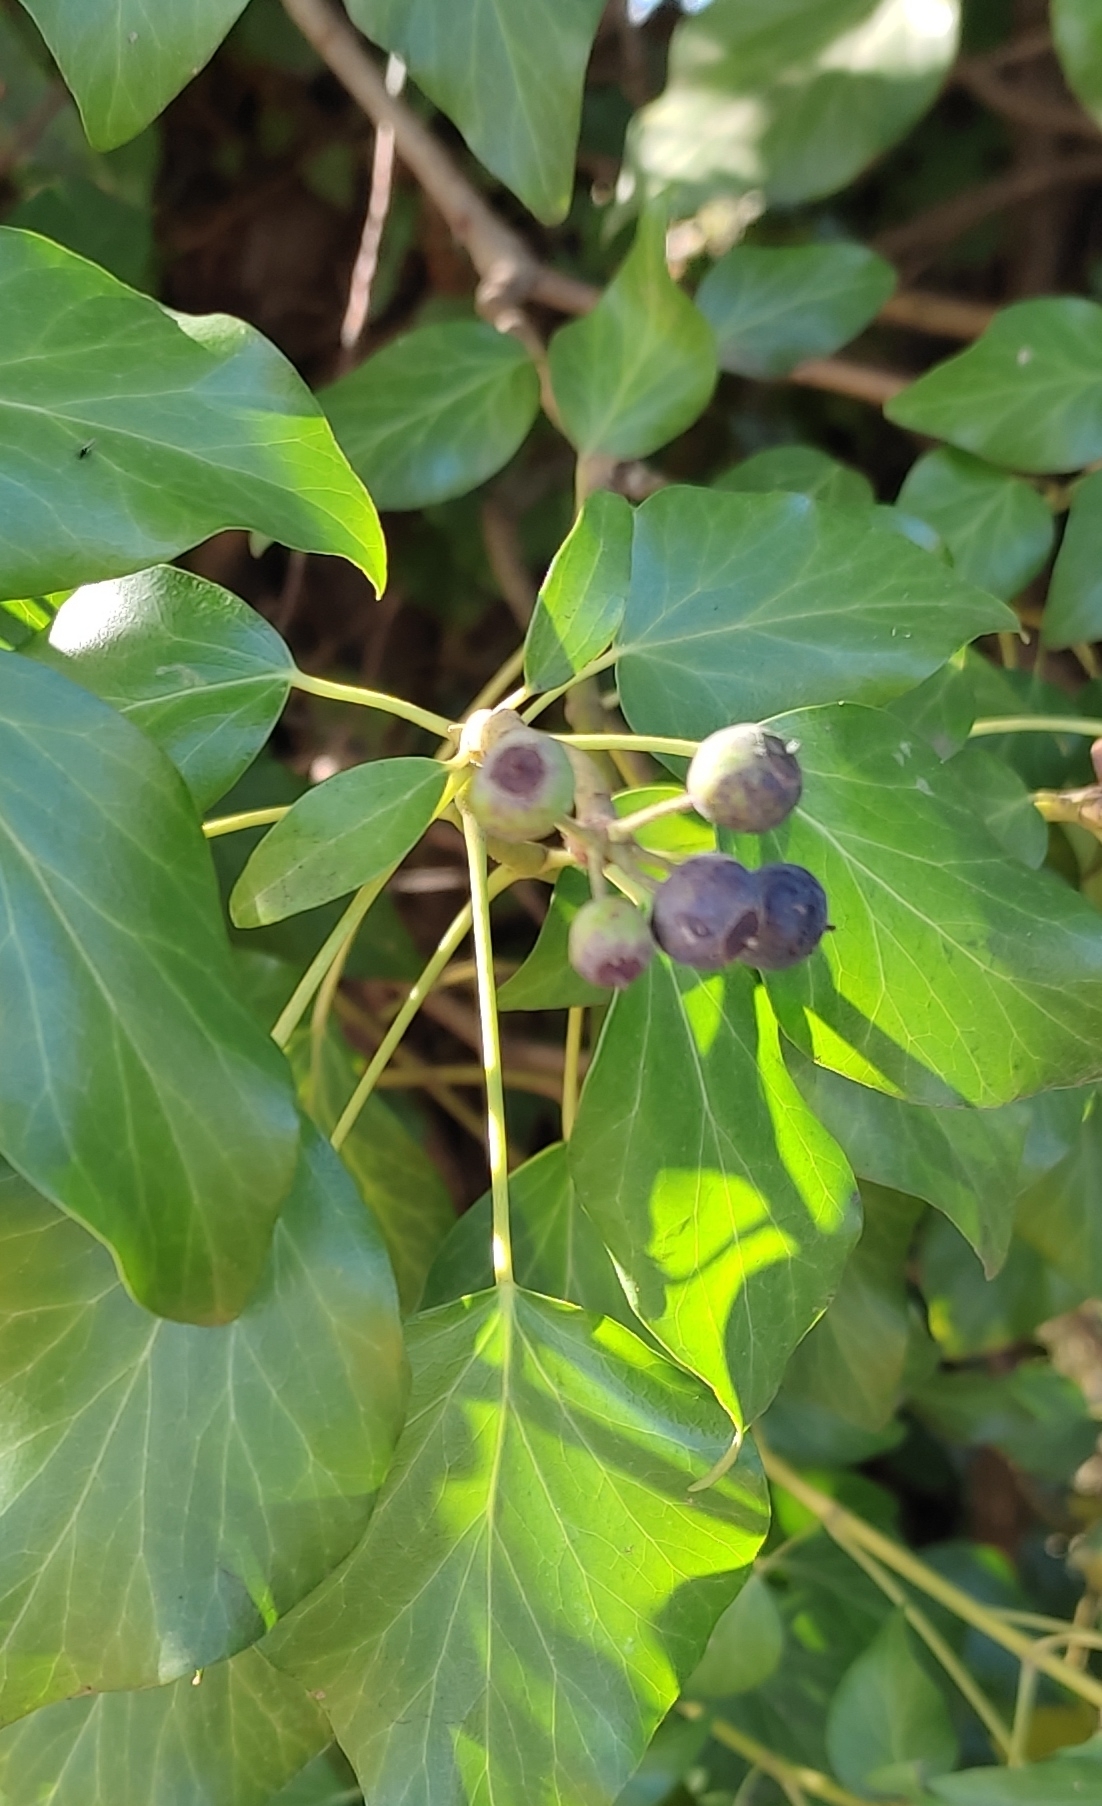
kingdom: Plantae
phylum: Tracheophyta
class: Magnoliopsida
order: Apiales
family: Araliaceae
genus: Hedera
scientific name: Hedera helix
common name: Ivy
